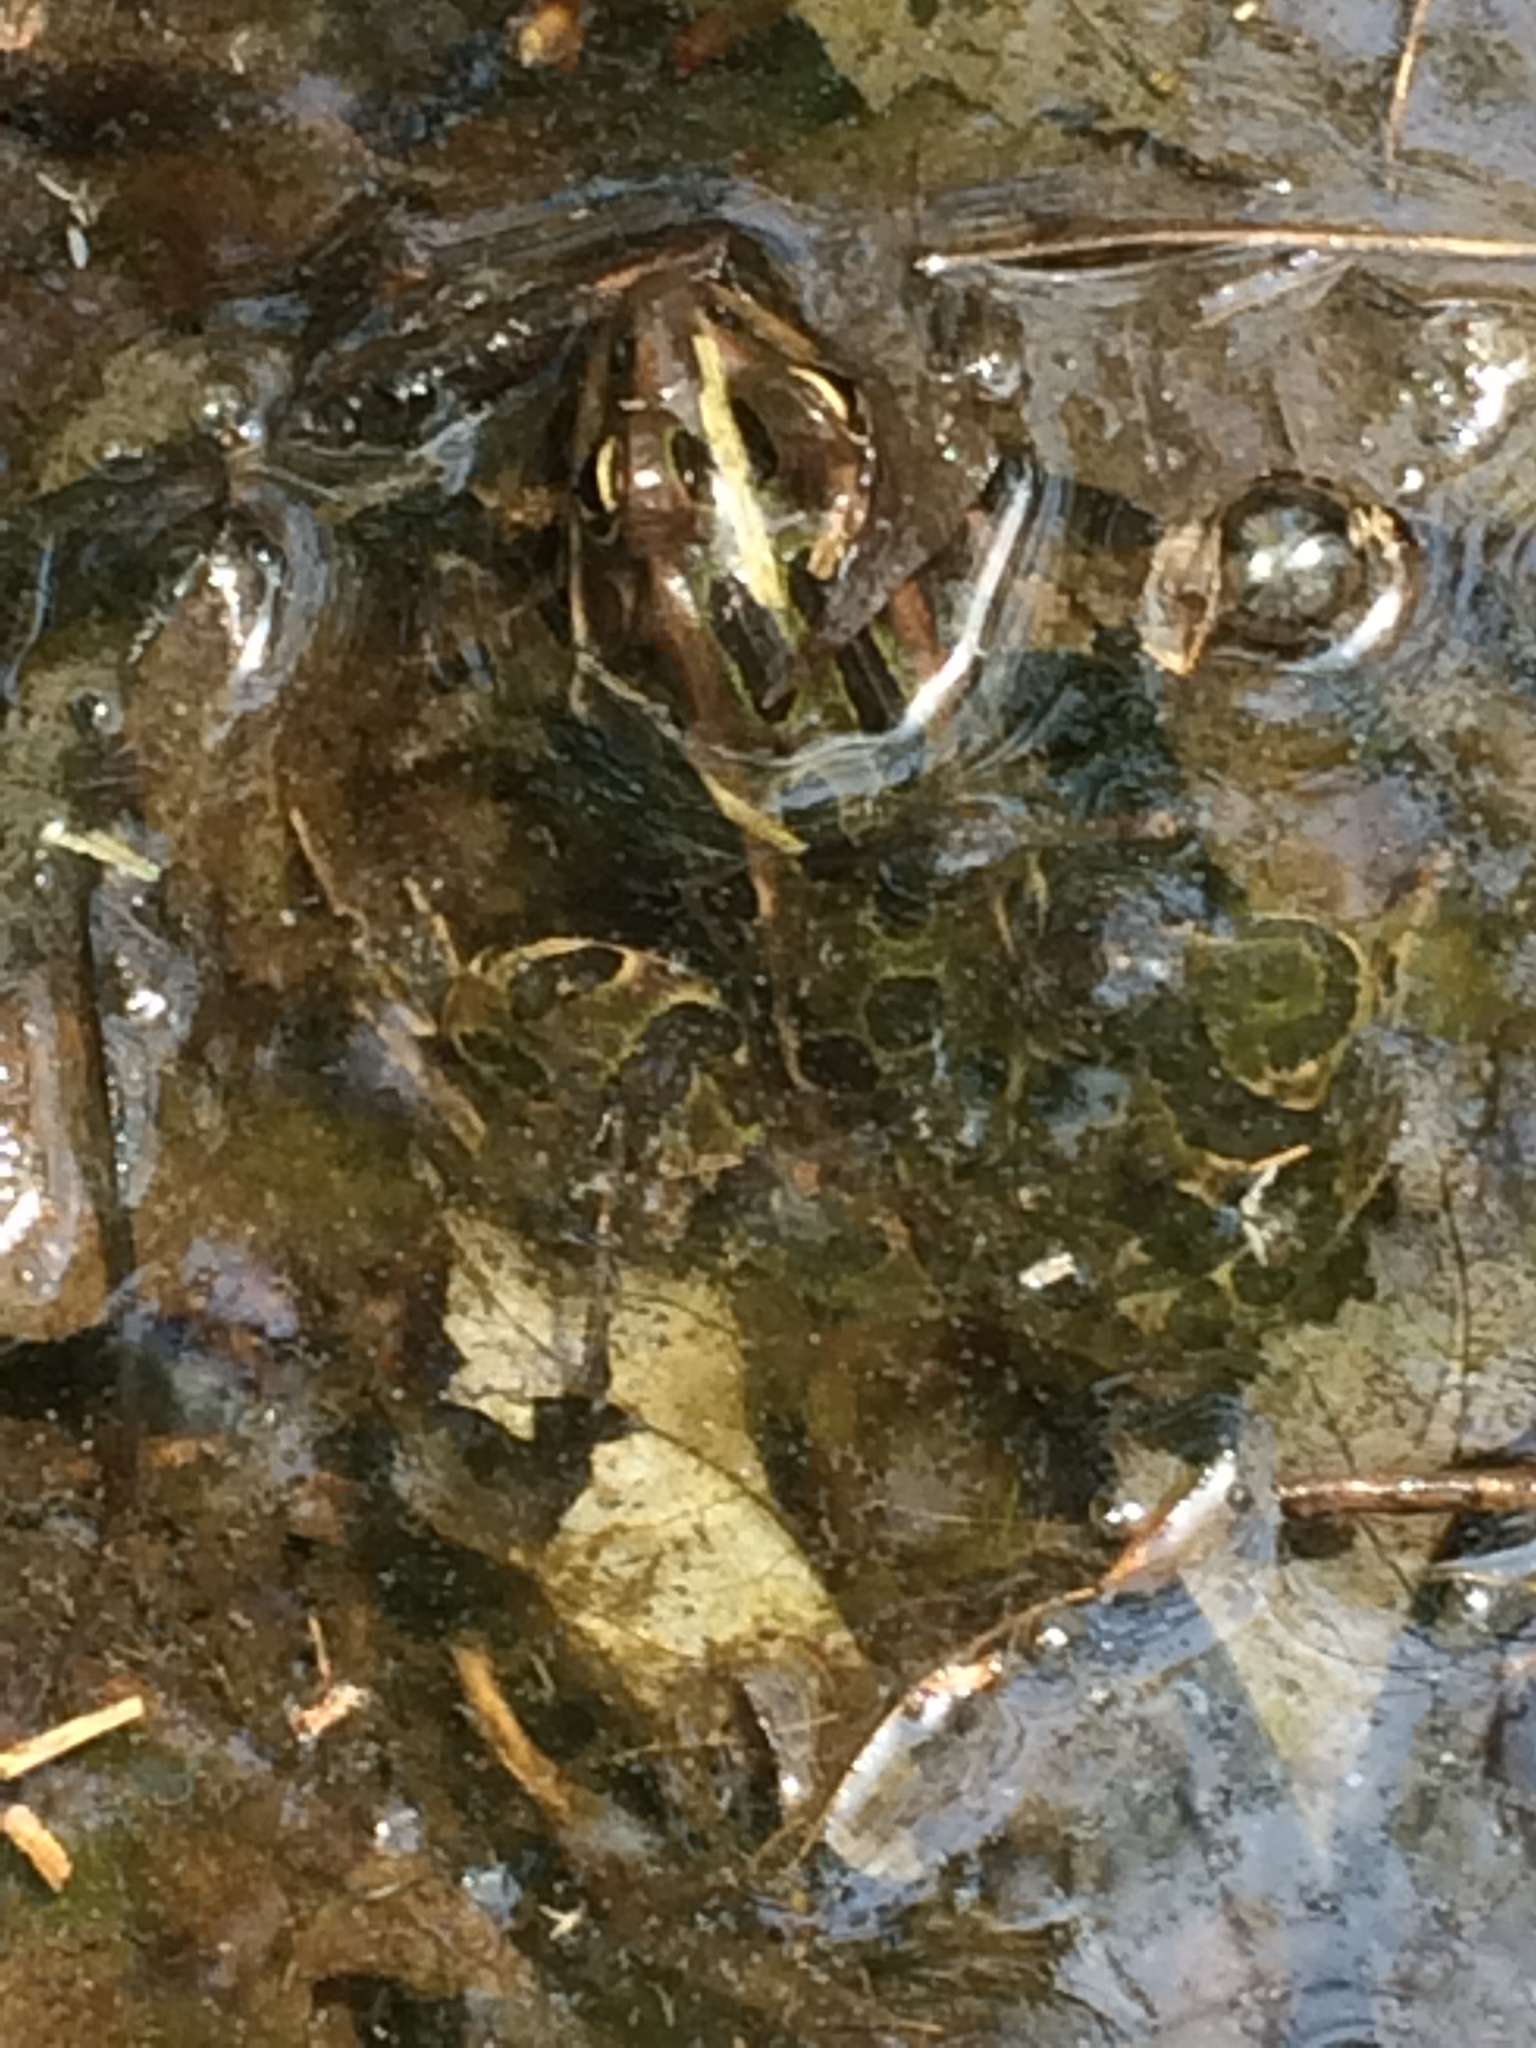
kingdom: Animalia
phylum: Chordata
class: Amphibia
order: Anura
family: Ranidae
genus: Lithobates
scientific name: Lithobates pipiens
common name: Northern leopard frog
